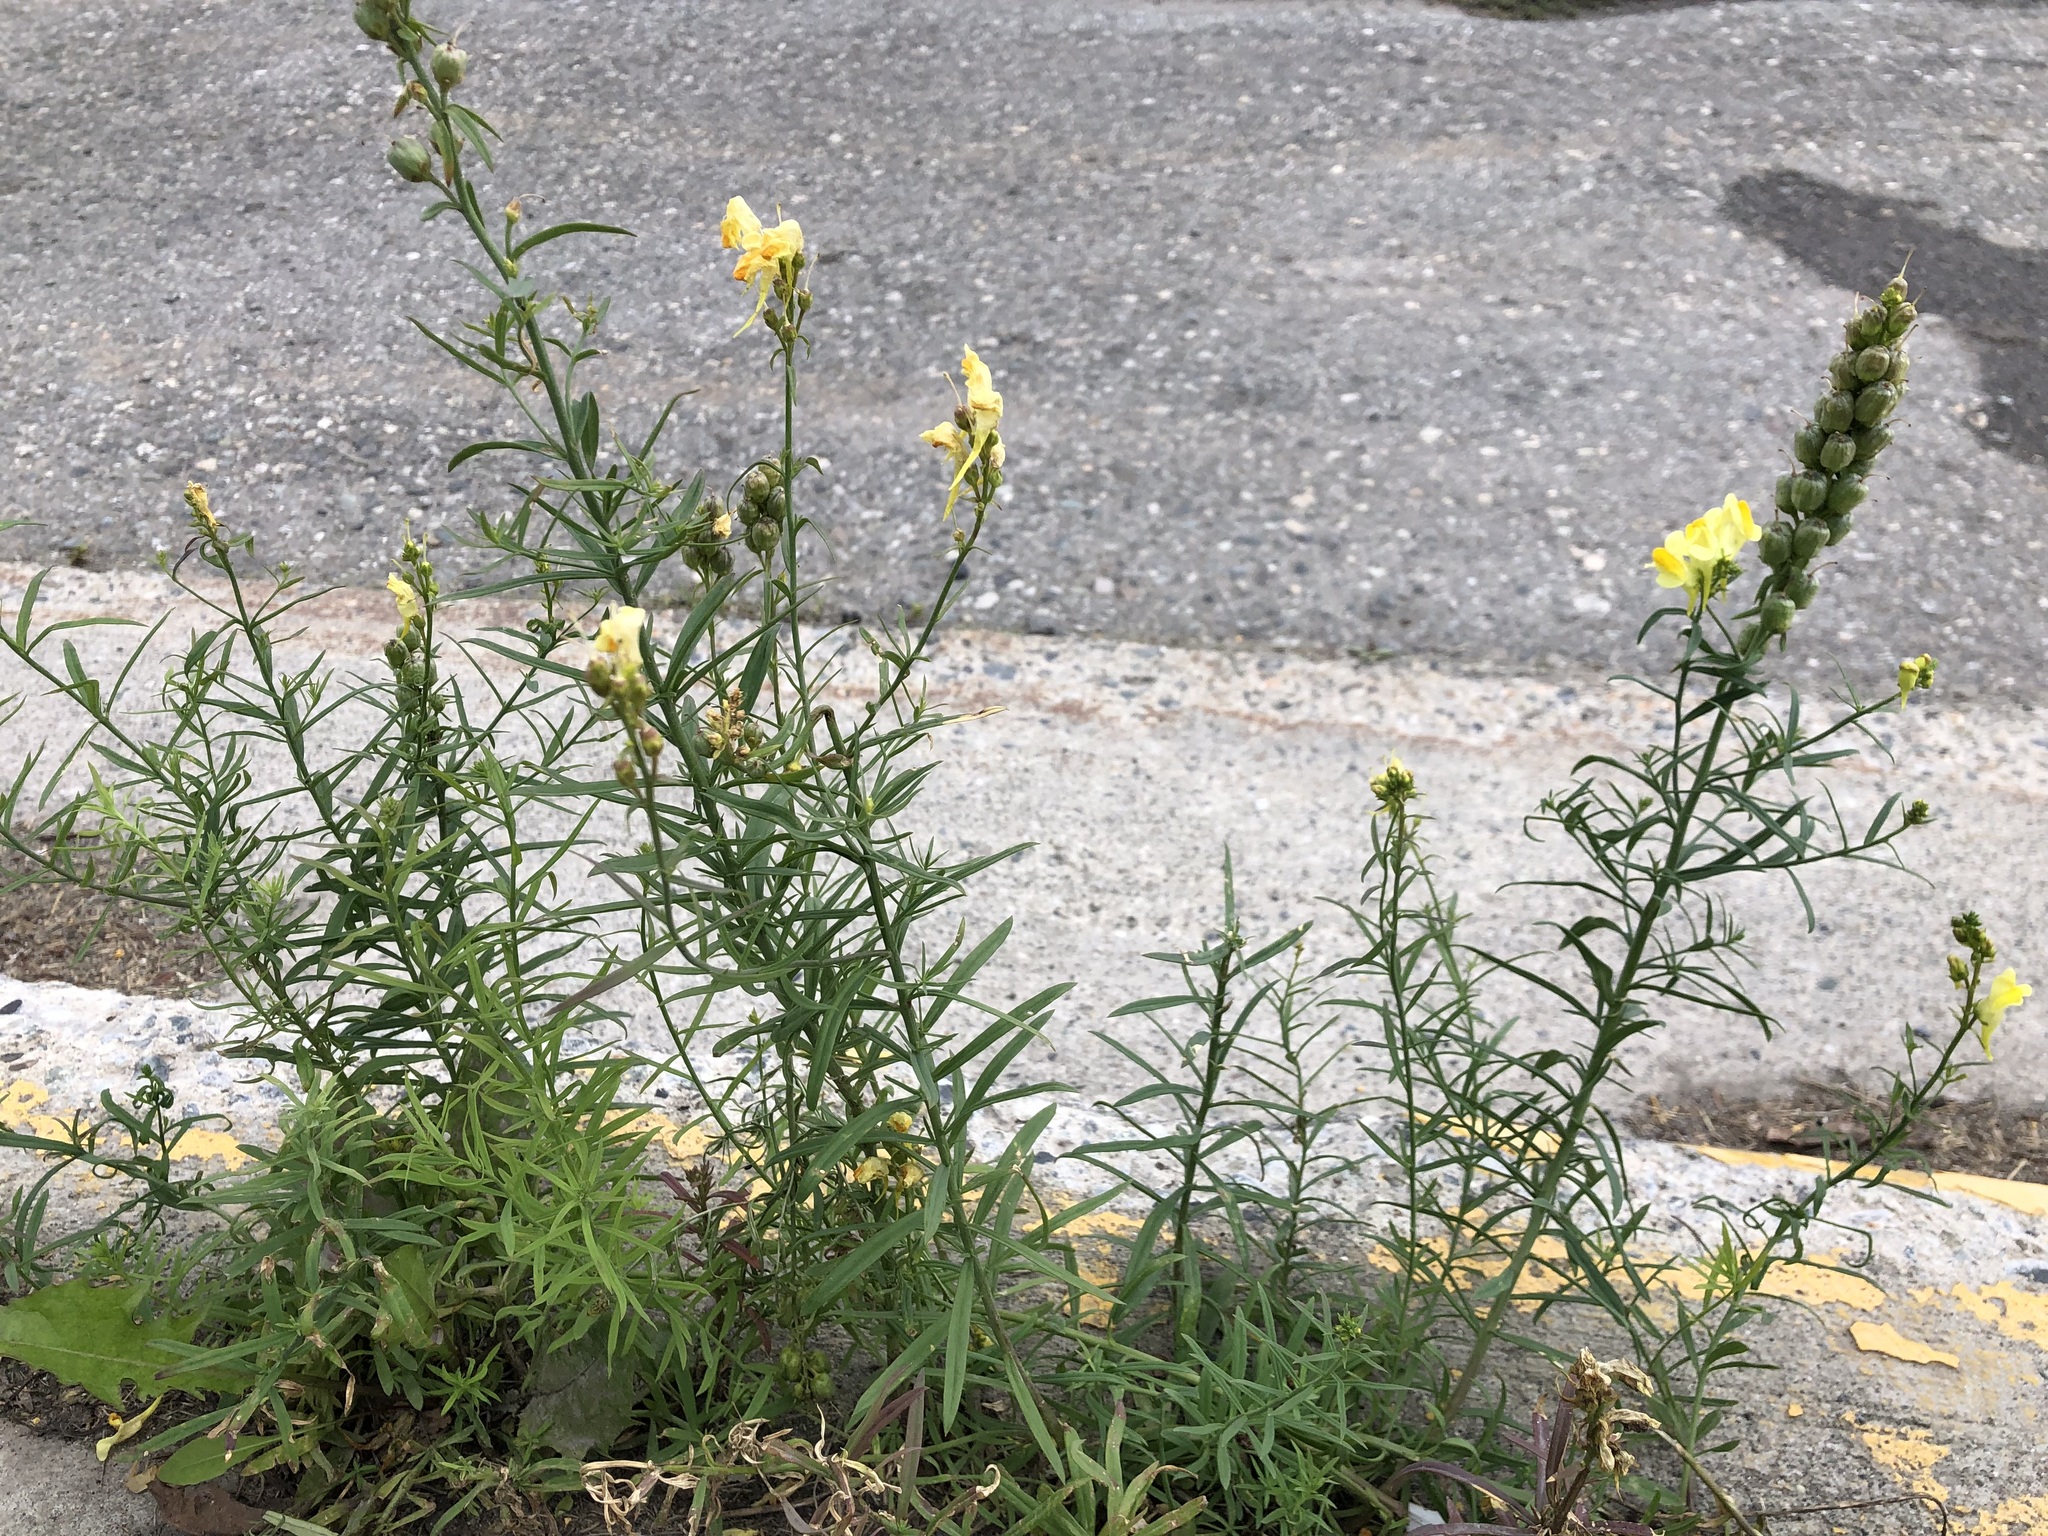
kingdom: Plantae
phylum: Tracheophyta
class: Magnoliopsida
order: Lamiales
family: Plantaginaceae
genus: Linaria
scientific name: Linaria vulgaris
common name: Butter and eggs
